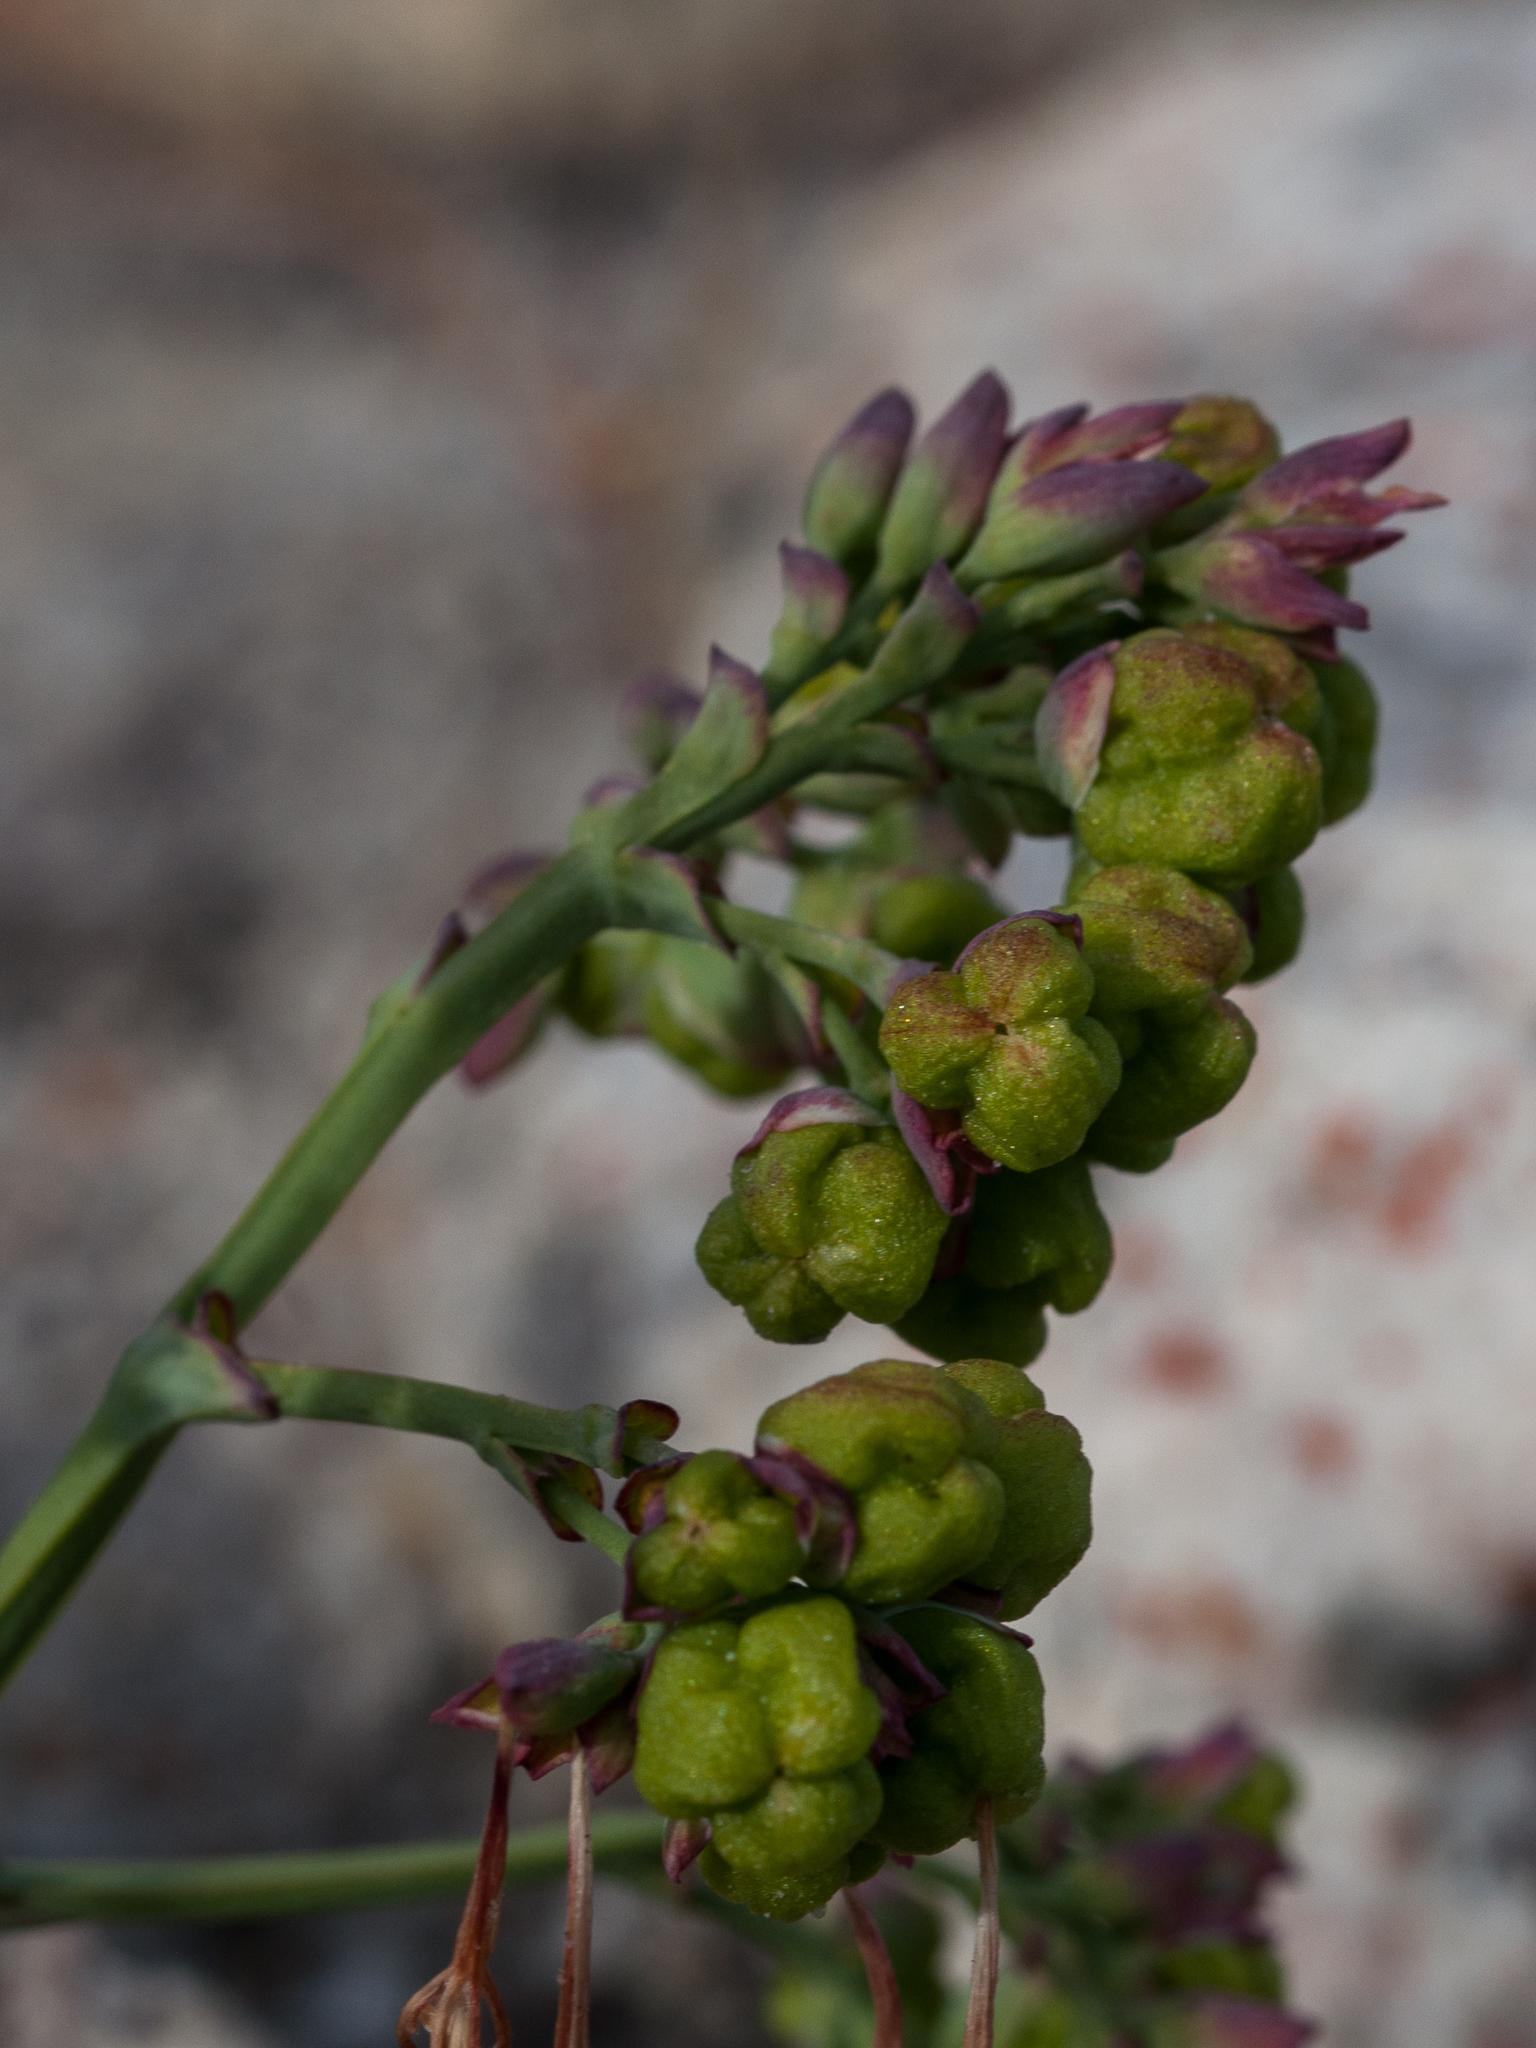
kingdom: Plantae
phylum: Tracheophyta
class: Liliopsida
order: Asparagales
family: Iridaceae
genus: Codonorhiza
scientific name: Codonorhiza micrantha
